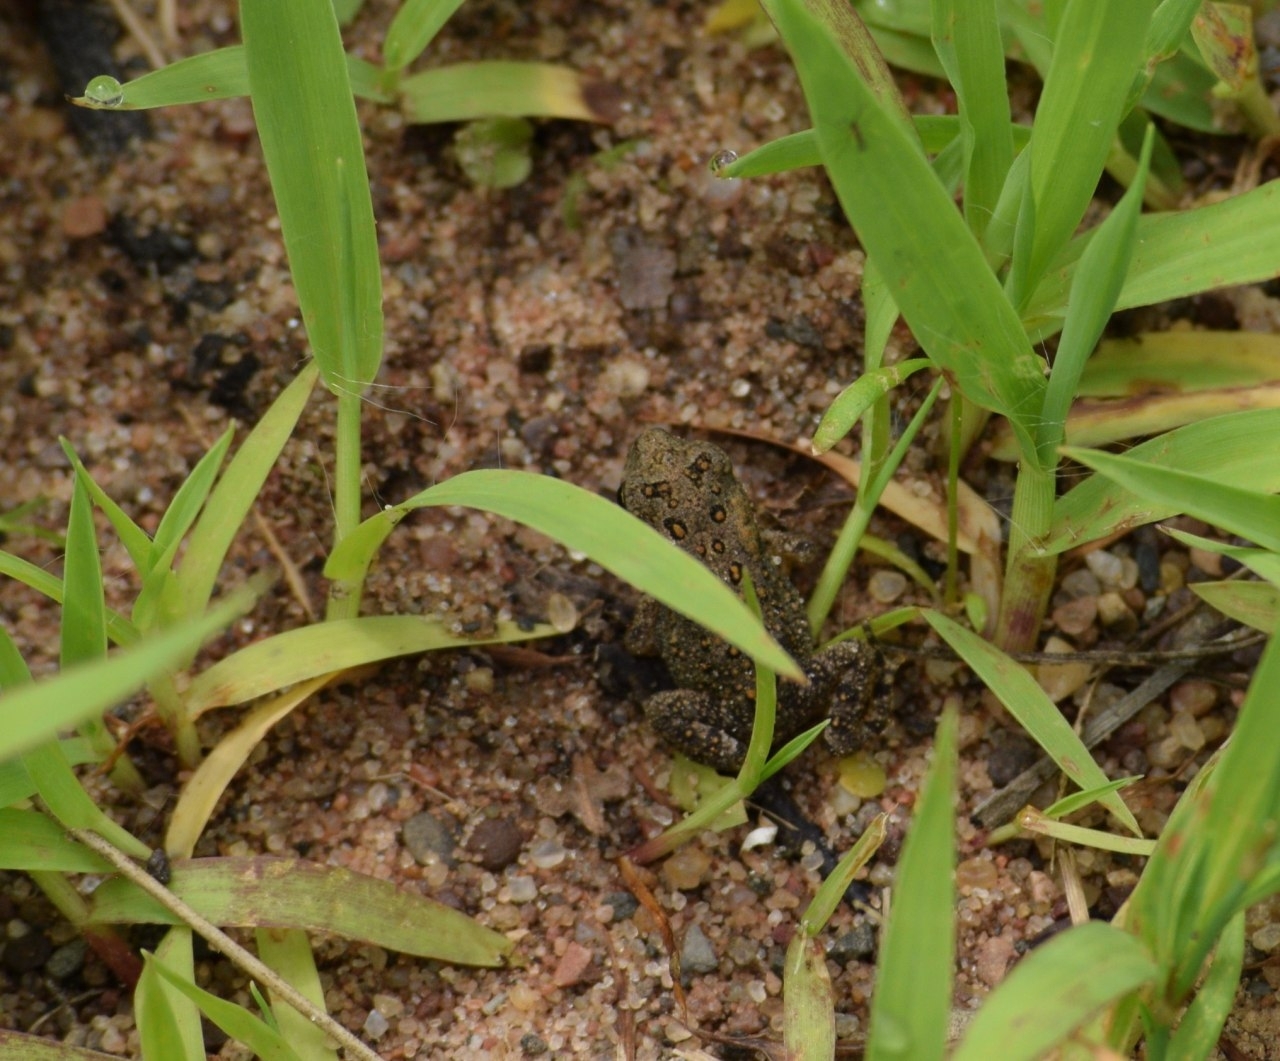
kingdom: Animalia
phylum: Chordata
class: Amphibia
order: Anura
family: Bufonidae
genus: Anaxyrus
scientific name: Anaxyrus americanus
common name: American toad
